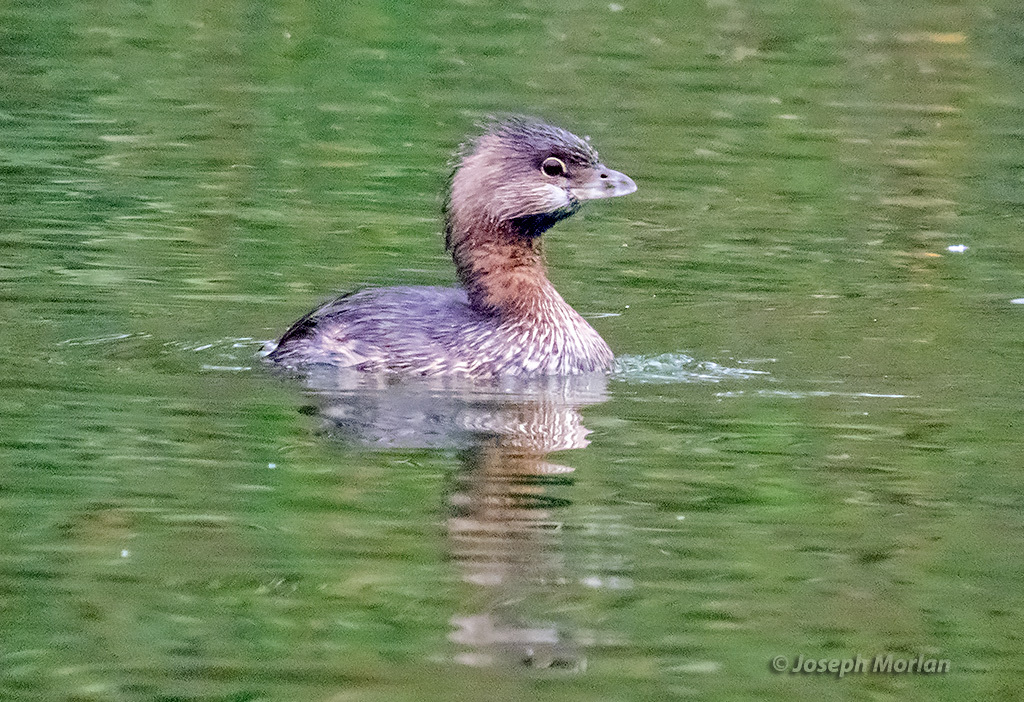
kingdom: Animalia
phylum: Chordata
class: Aves
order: Podicipediformes
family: Podicipedidae
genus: Podilymbus
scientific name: Podilymbus podiceps
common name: Pied-billed grebe
